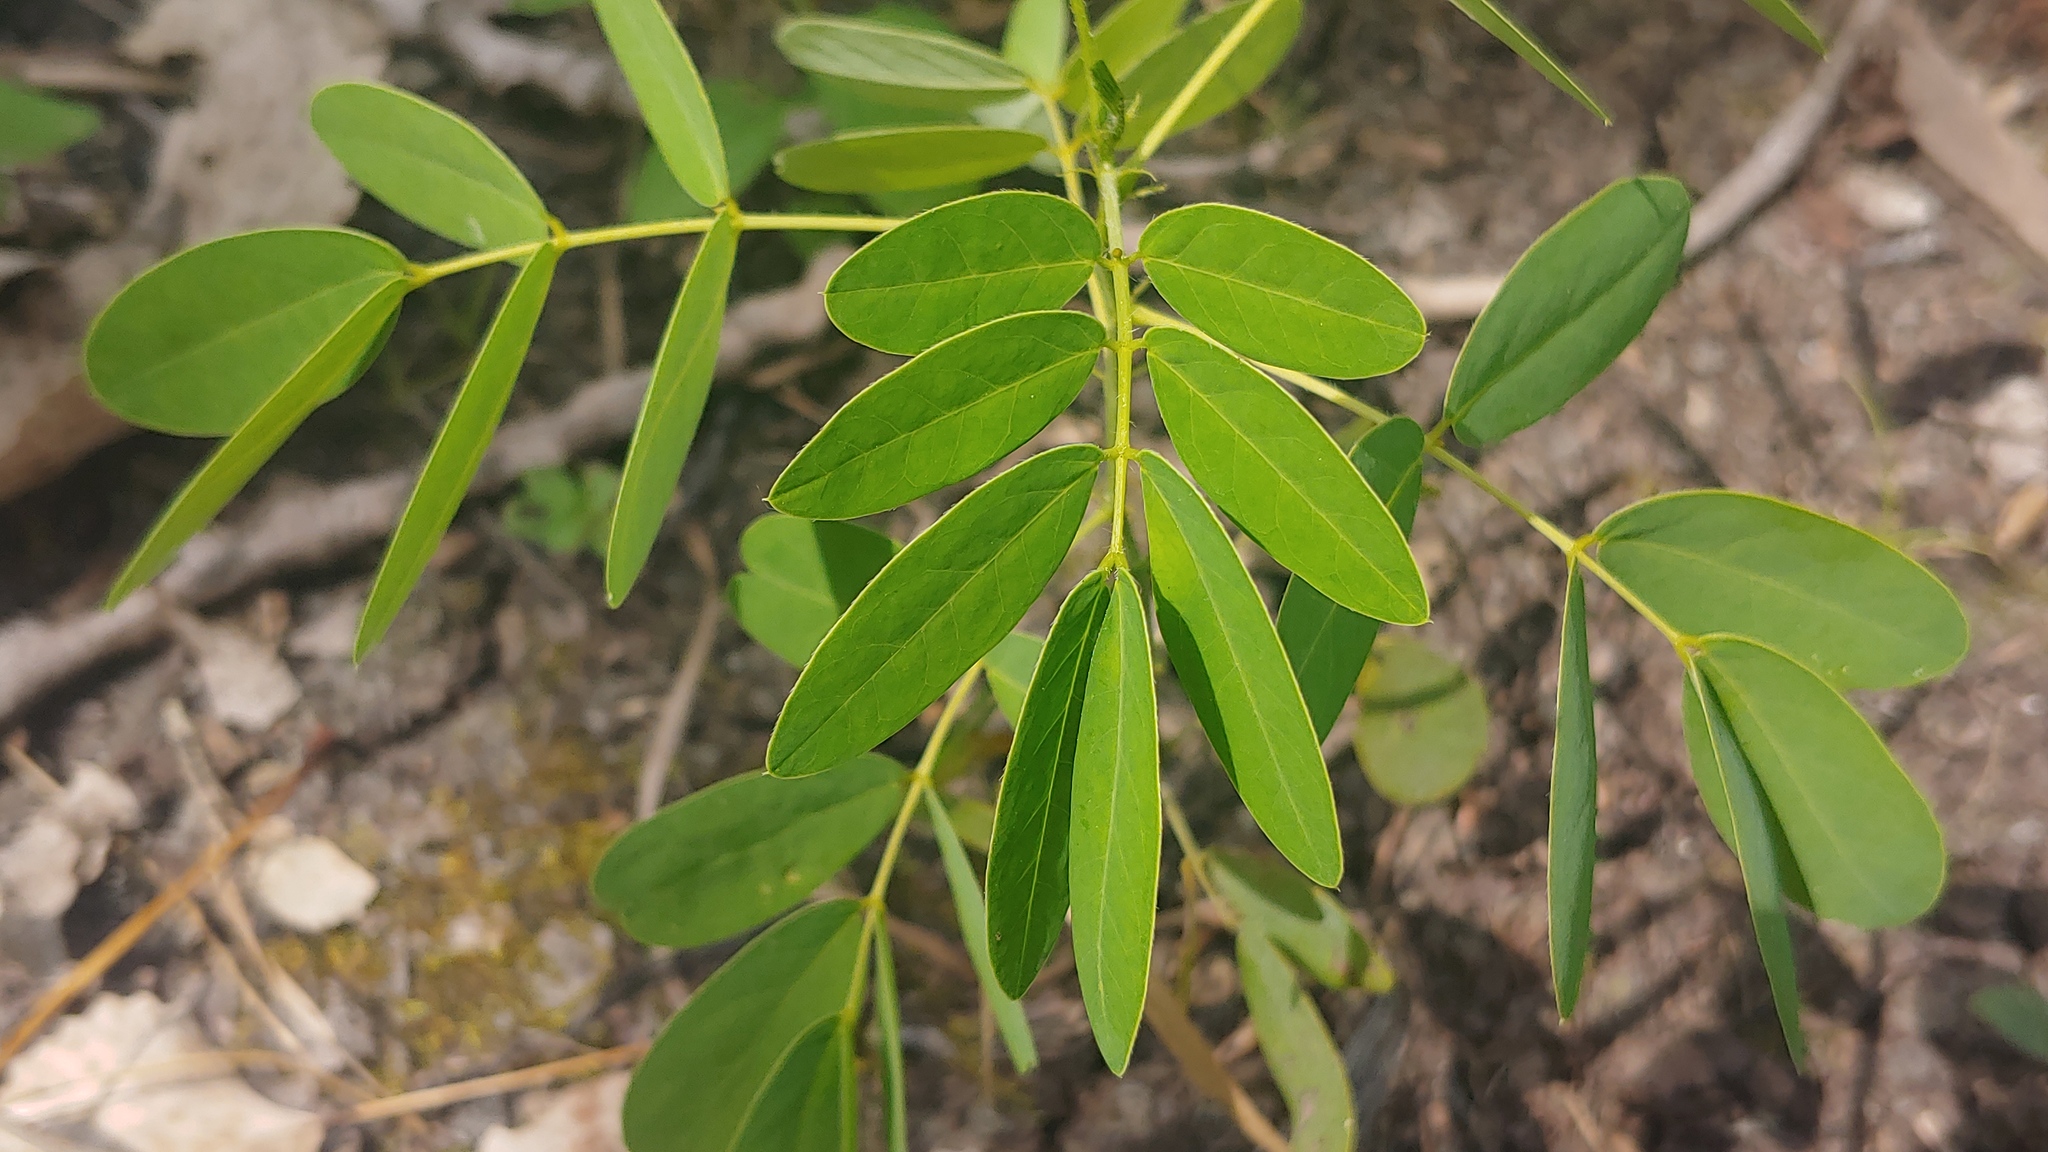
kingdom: Plantae
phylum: Tracheophyta
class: Magnoliopsida
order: Fabales
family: Fabaceae
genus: Senna
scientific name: Senna hebecarpa
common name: Wild senna
